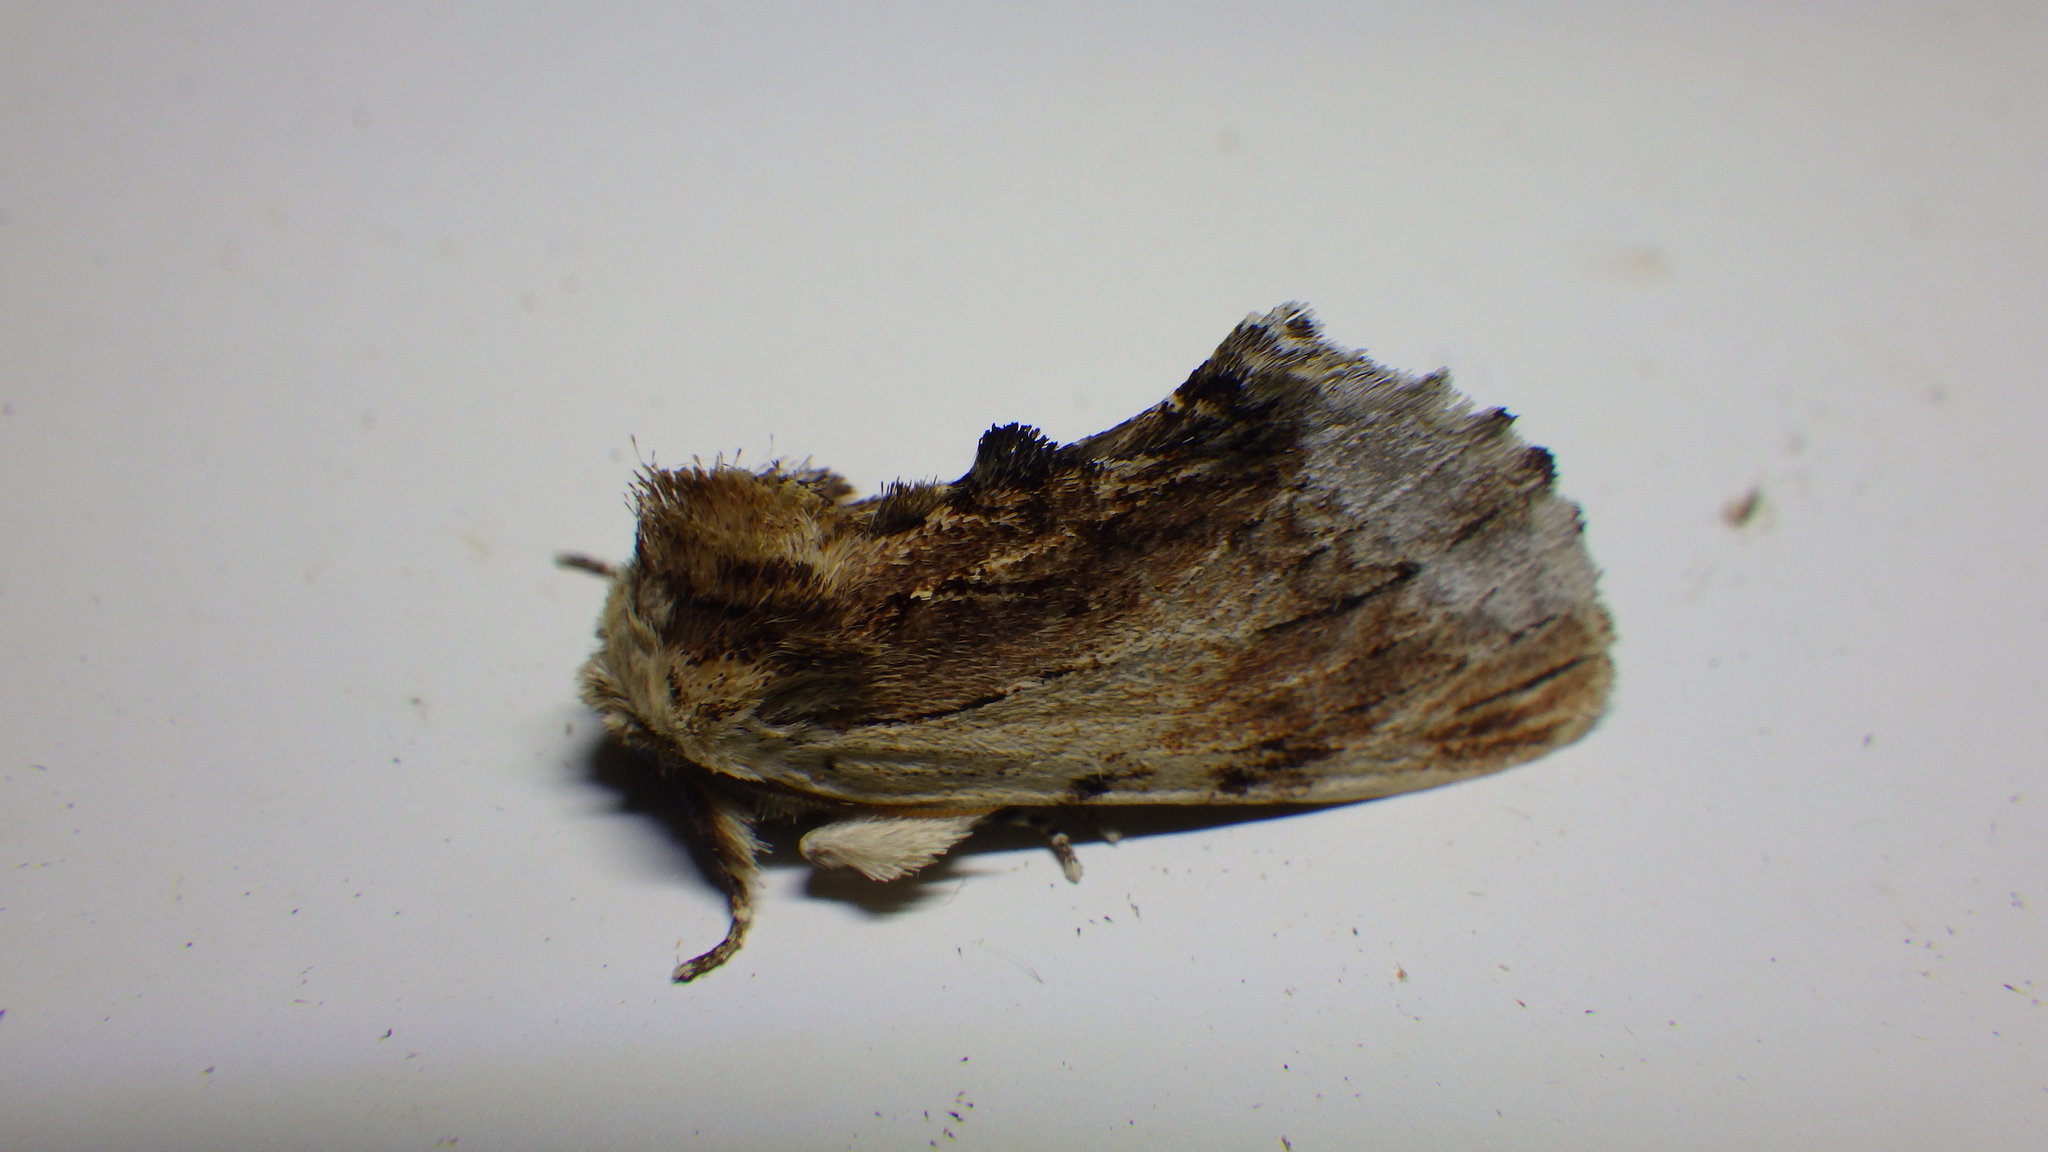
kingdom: Animalia
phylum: Arthropoda
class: Insecta
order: Lepidoptera
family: Notodontidae
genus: Ptilodon
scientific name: Ptilodon cucullina
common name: Maple prominent
